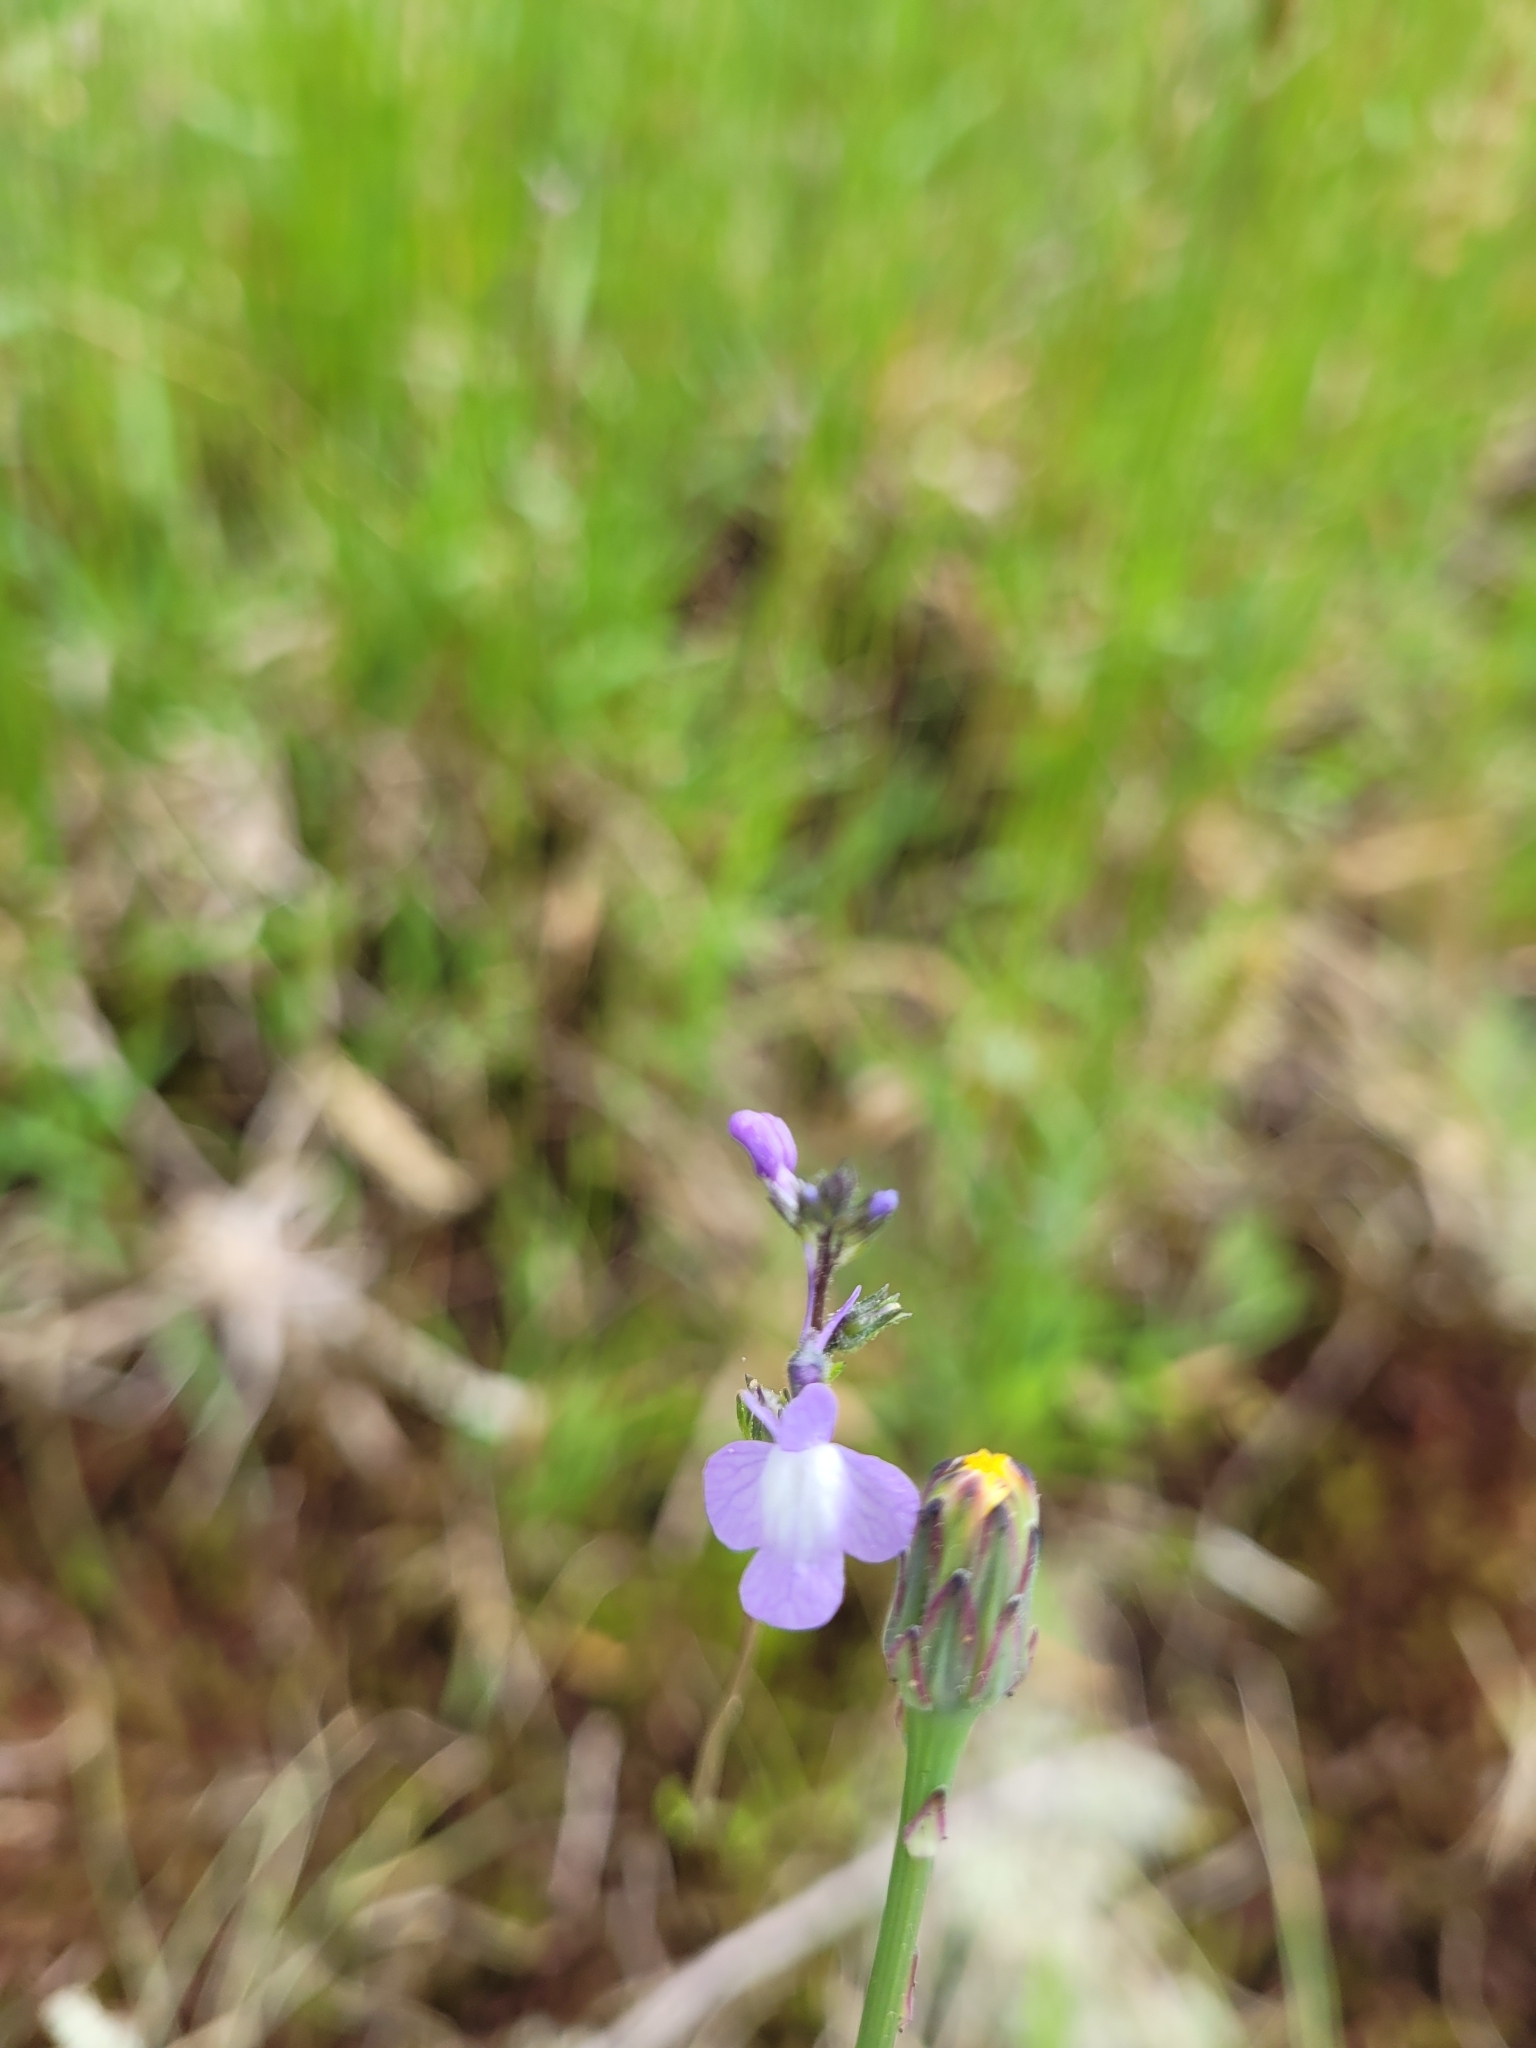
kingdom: Plantae
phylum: Tracheophyta
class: Magnoliopsida
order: Lamiales
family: Plantaginaceae
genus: Nuttallanthus
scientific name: Nuttallanthus canadensis
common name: Blue toadflax
